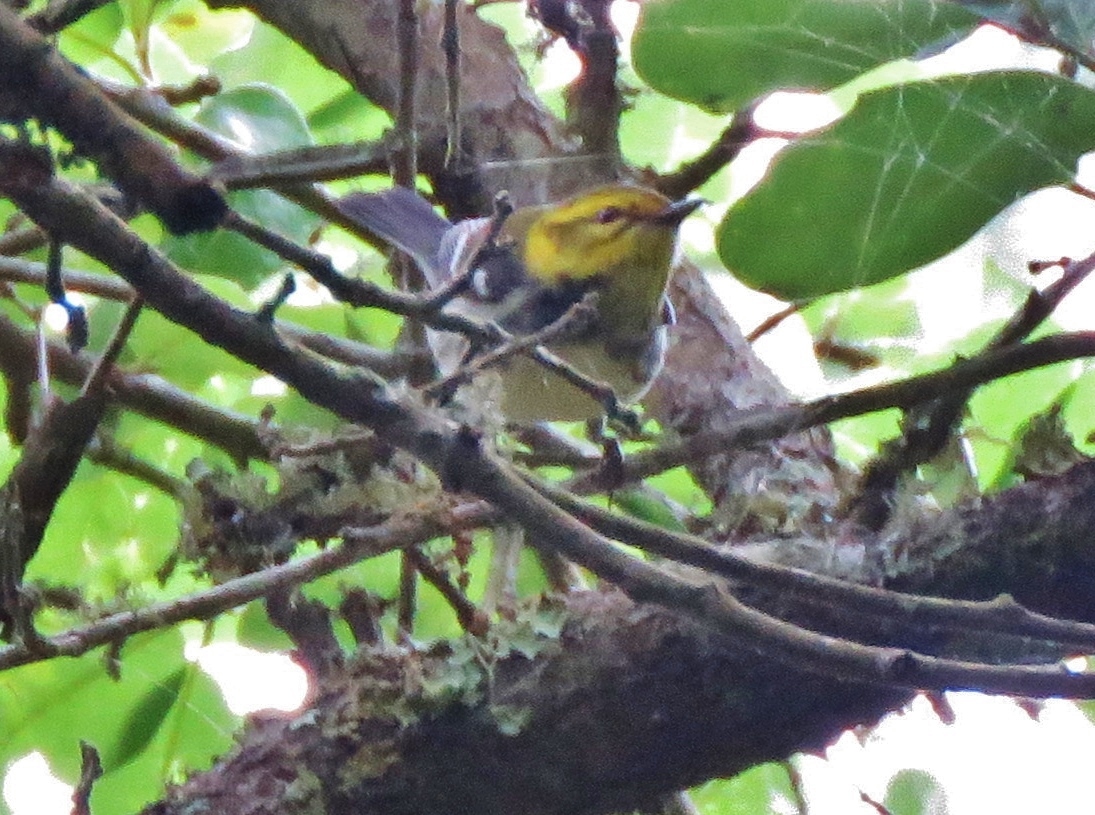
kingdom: Animalia
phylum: Chordata
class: Aves
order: Passeriformes
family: Parulidae
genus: Setophaga
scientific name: Setophaga virens
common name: Black-throated green warbler
